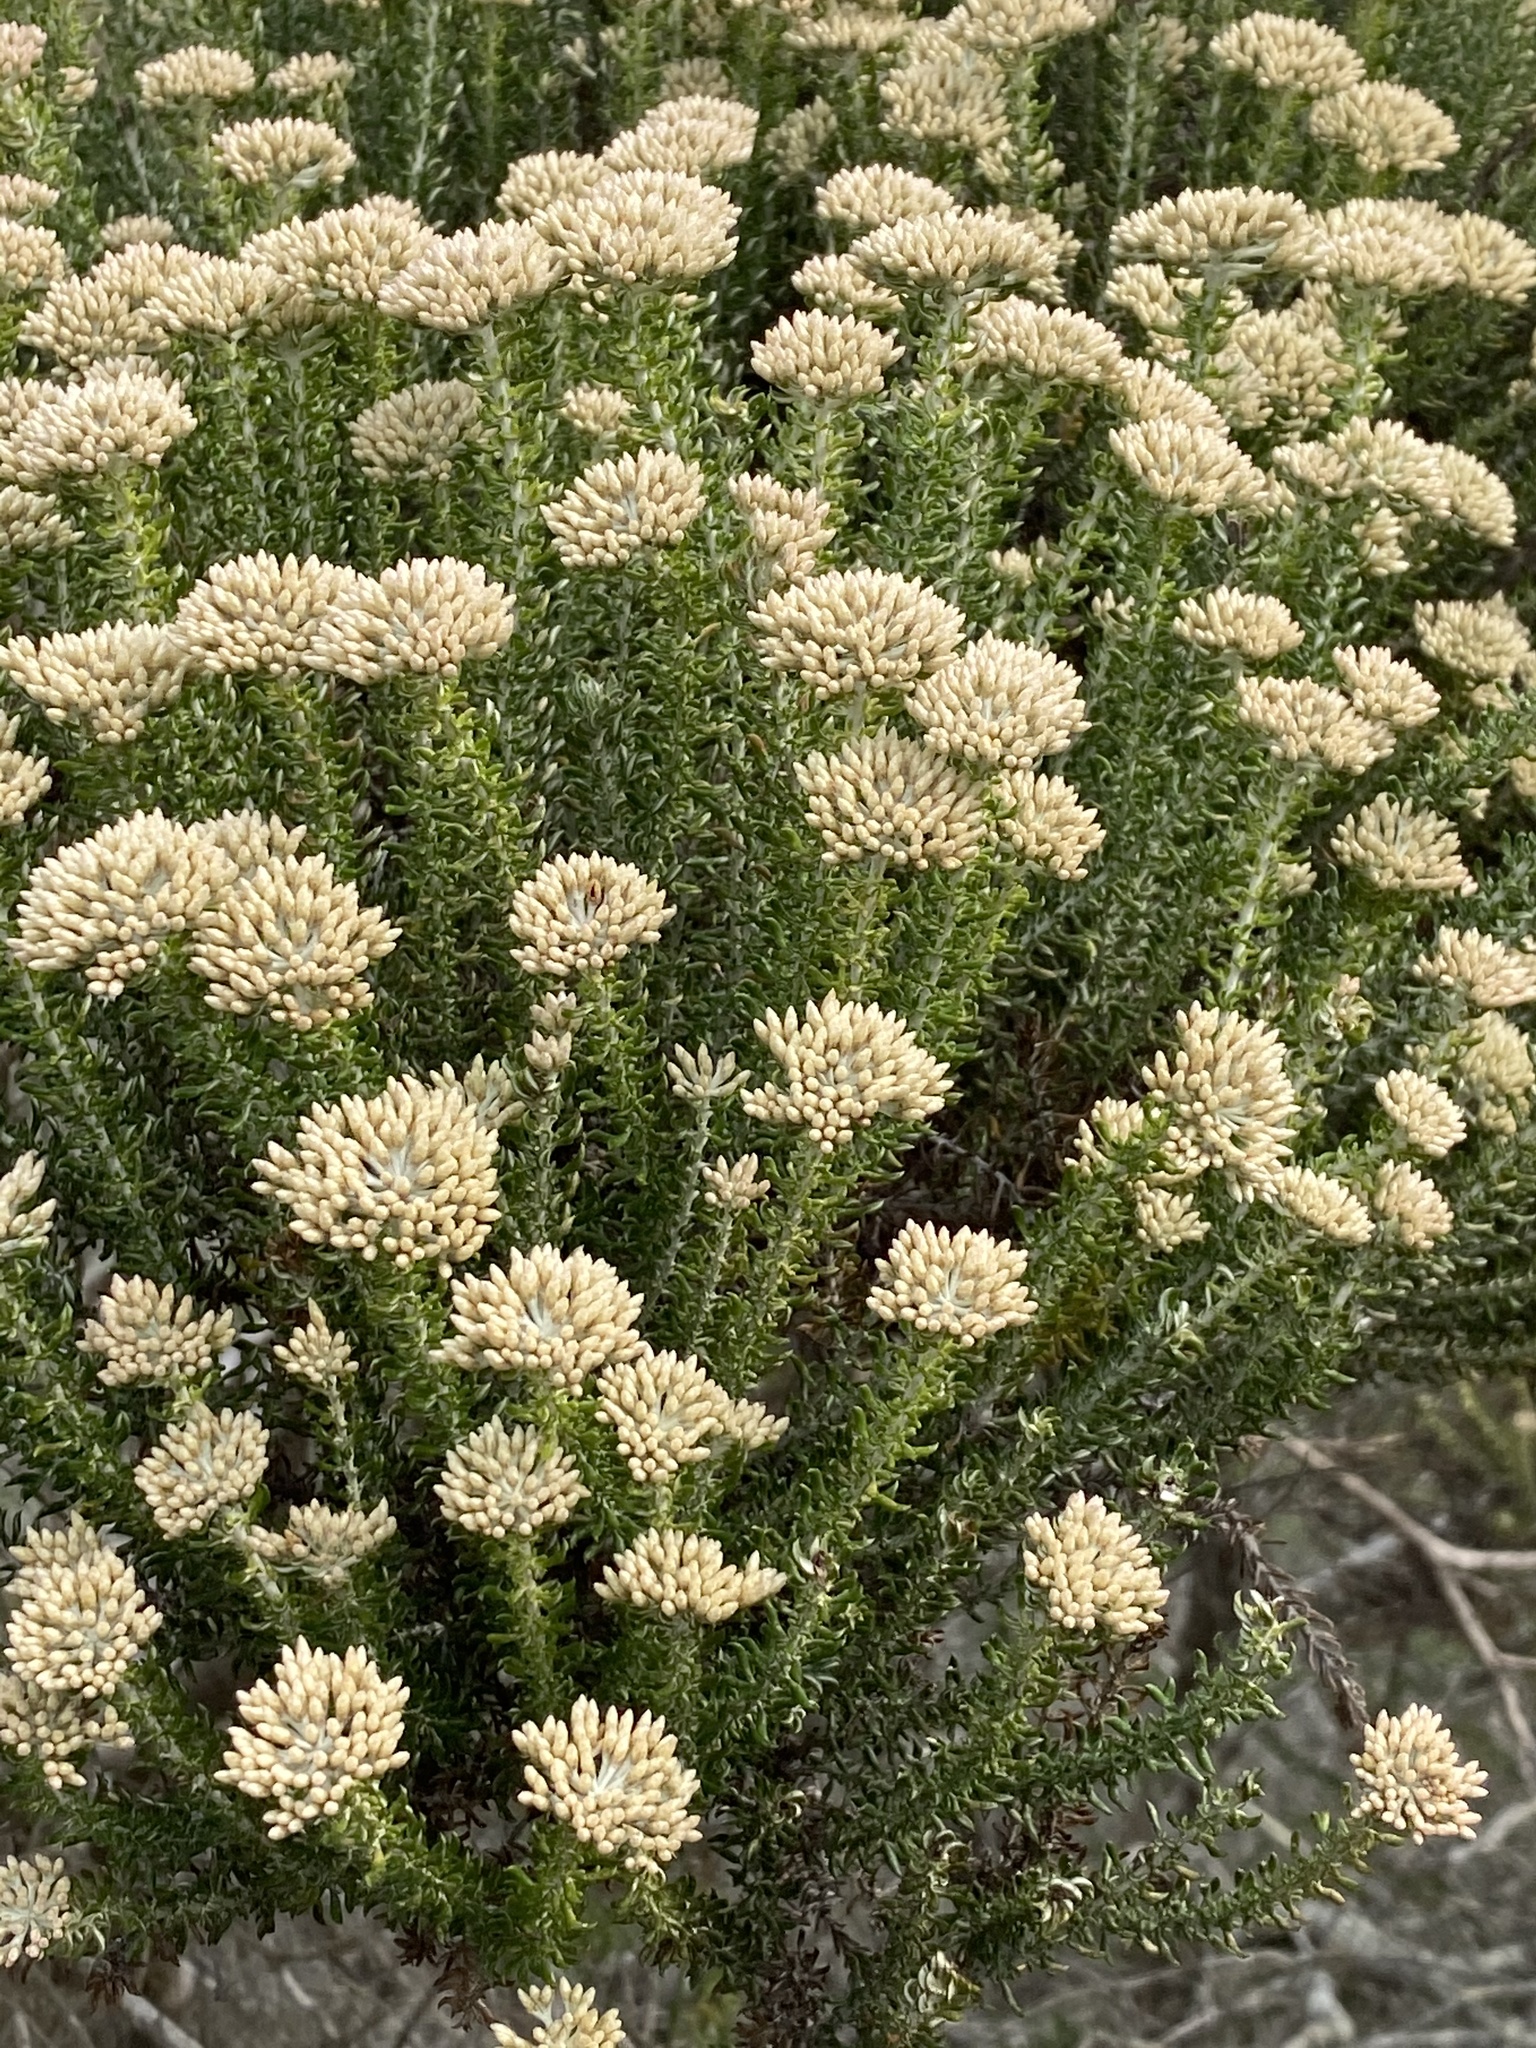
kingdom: Plantae
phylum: Tracheophyta
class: Magnoliopsida
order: Asterales
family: Asteraceae
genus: Metalasia
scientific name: Metalasia muricata
